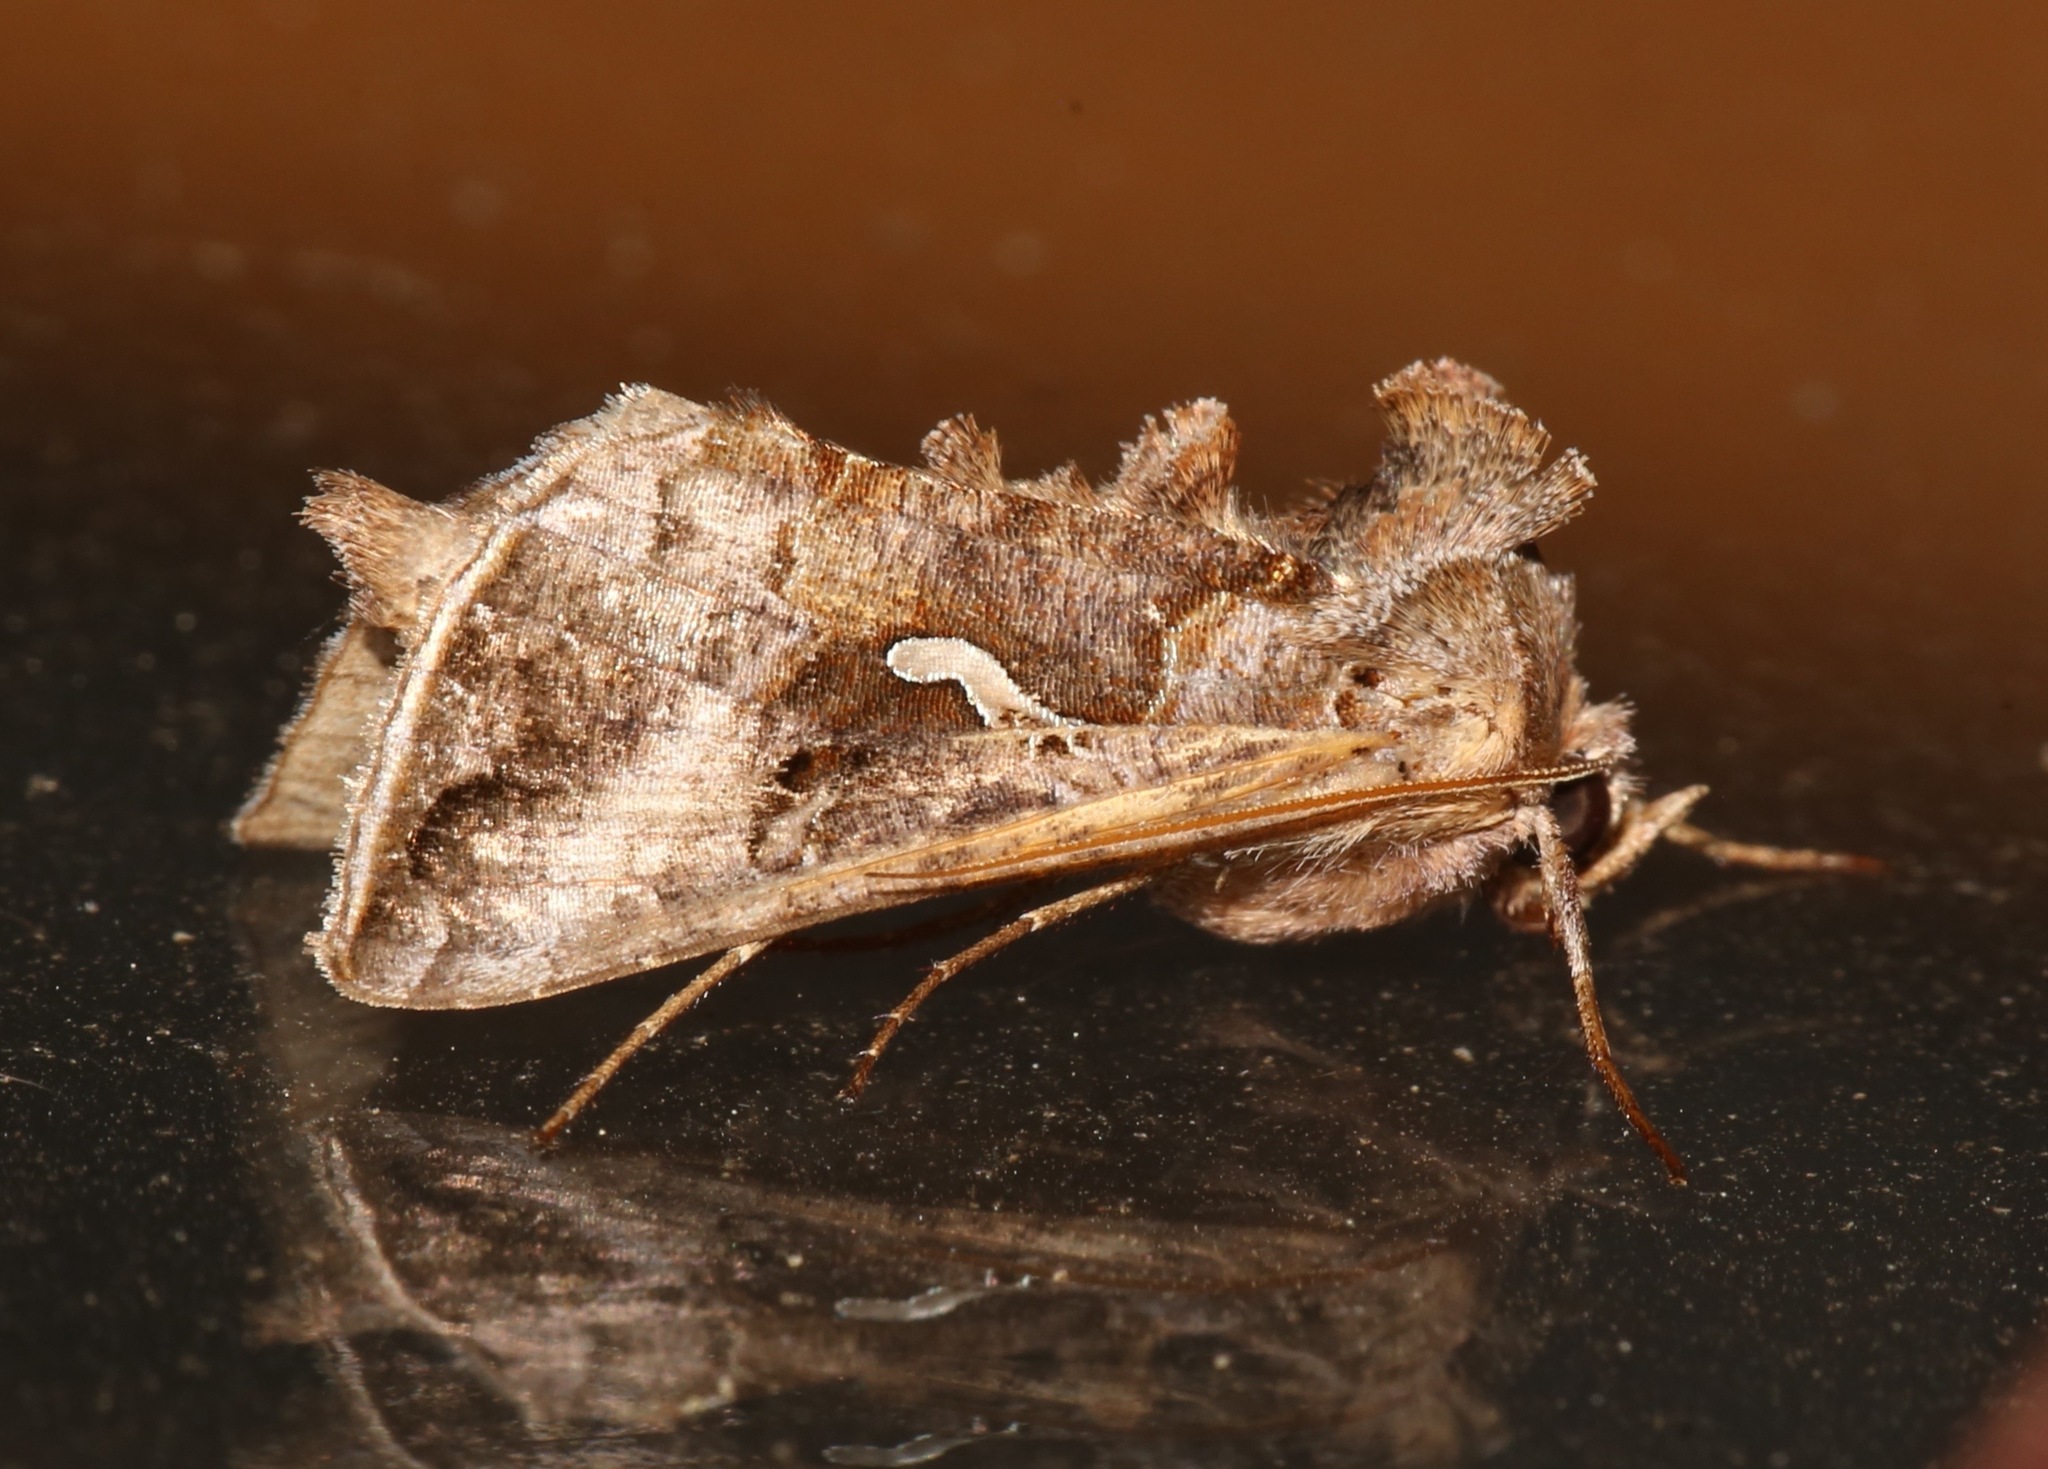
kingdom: Animalia
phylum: Arthropoda
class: Insecta
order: Lepidoptera
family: Noctuidae
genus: Autographa
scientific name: Autographa precationis
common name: Common looper moth
